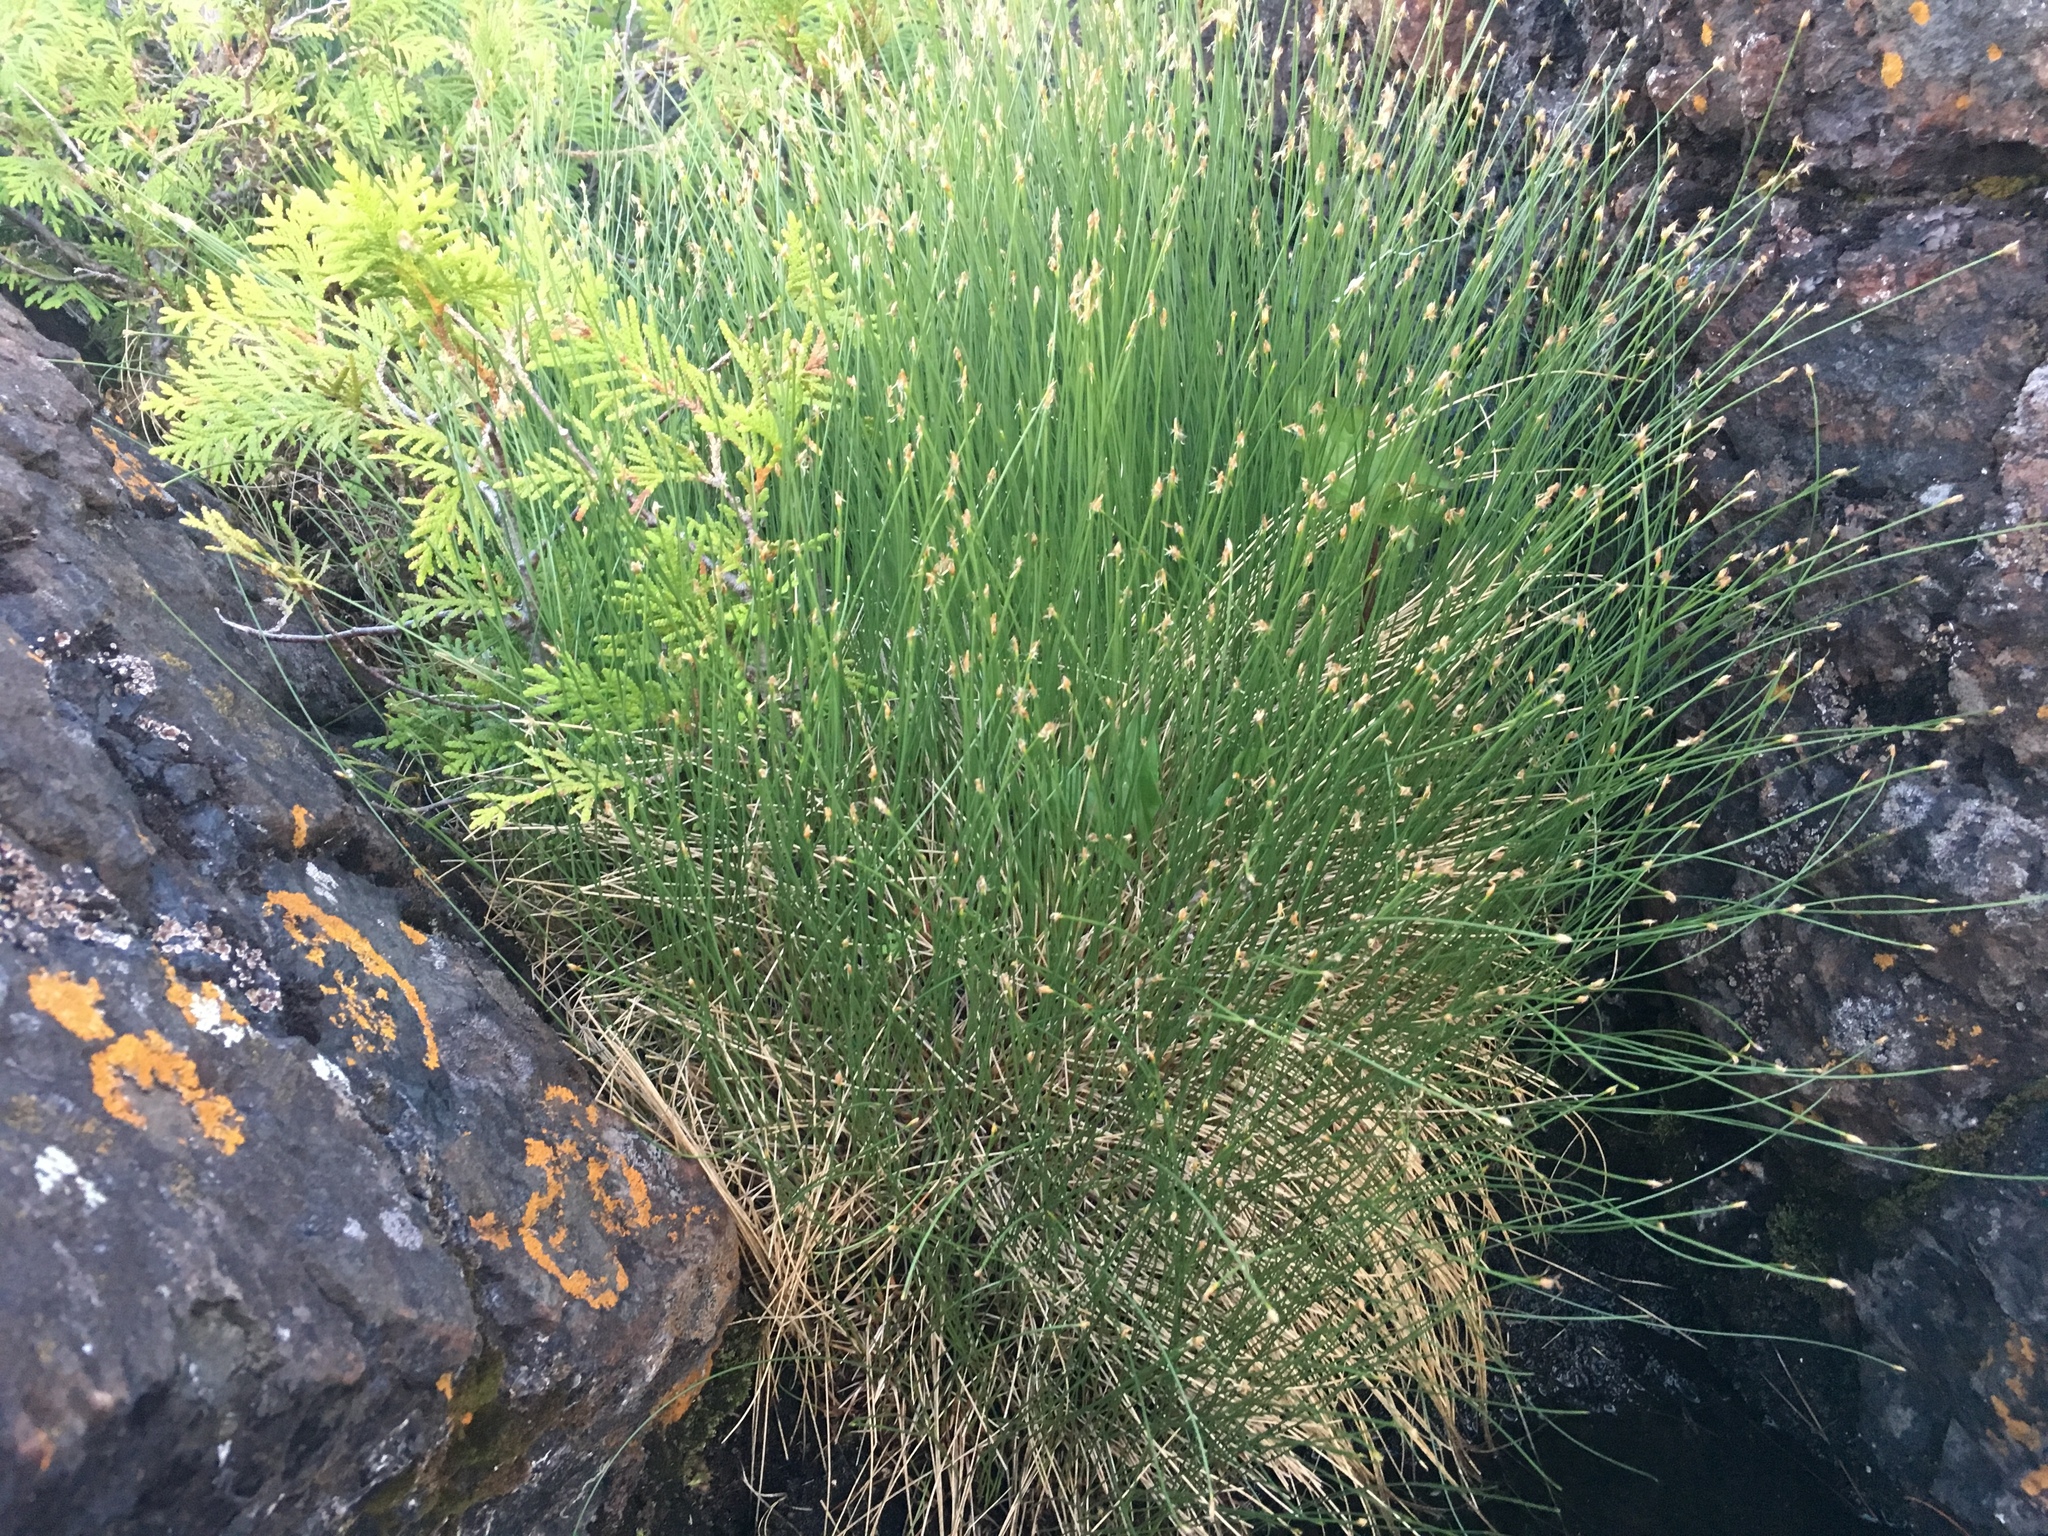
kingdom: Plantae
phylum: Tracheophyta
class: Liliopsida
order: Poales
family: Cyperaceae
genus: Trichophorum
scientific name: Trichophorum cespitosum
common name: Cespitose bulrush
